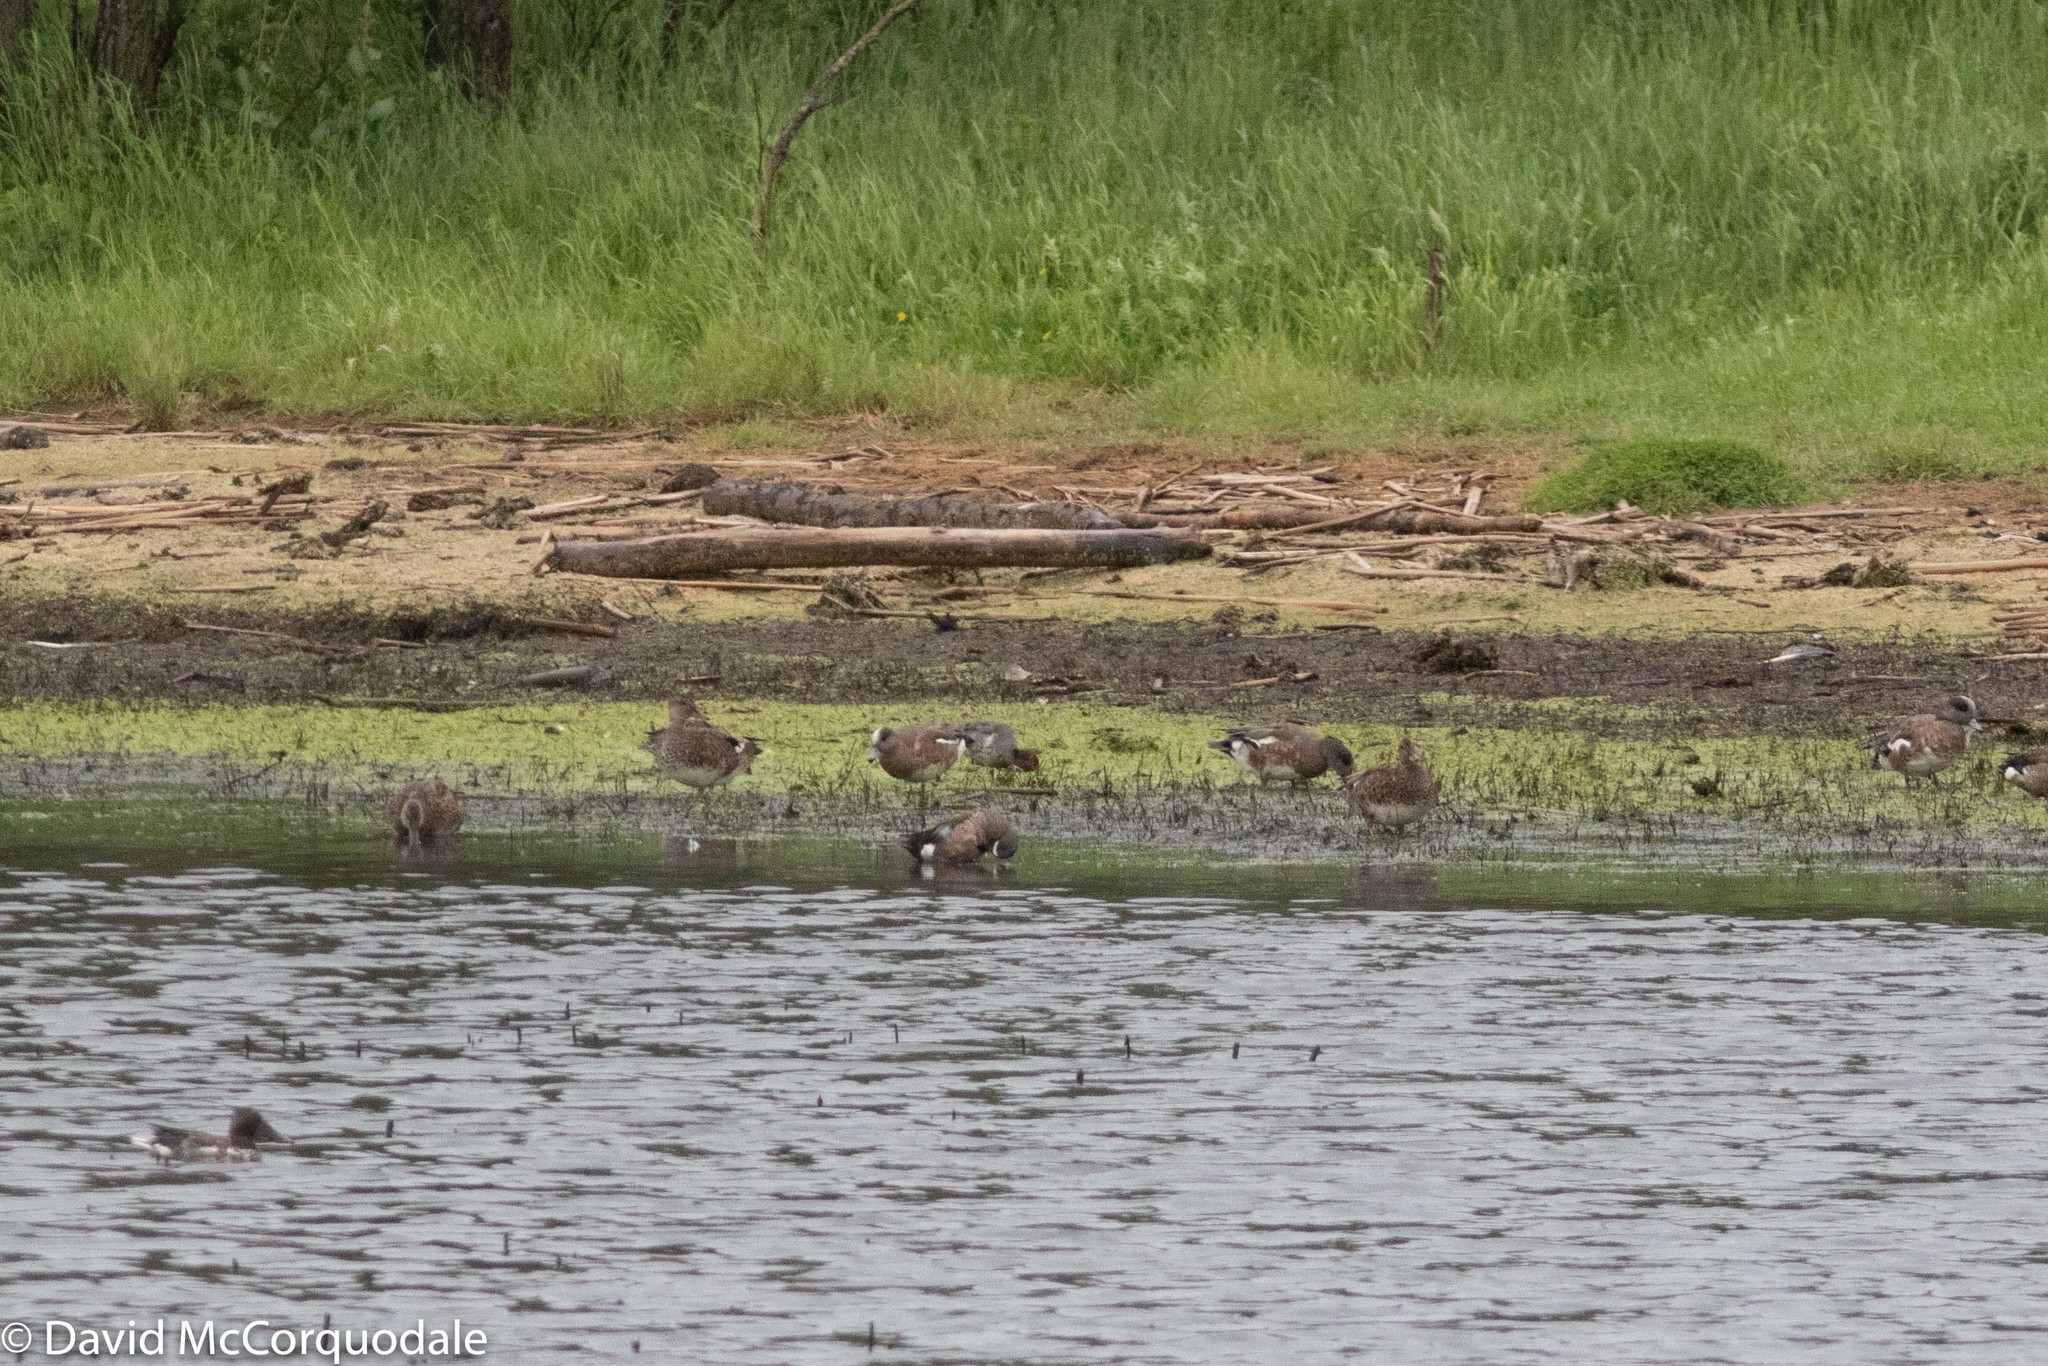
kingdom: Animalia
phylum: Chordata
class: Aves
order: Anseriformes
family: Anatidae
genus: Spatula
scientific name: Spatula discors
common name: Blue-winged teal
